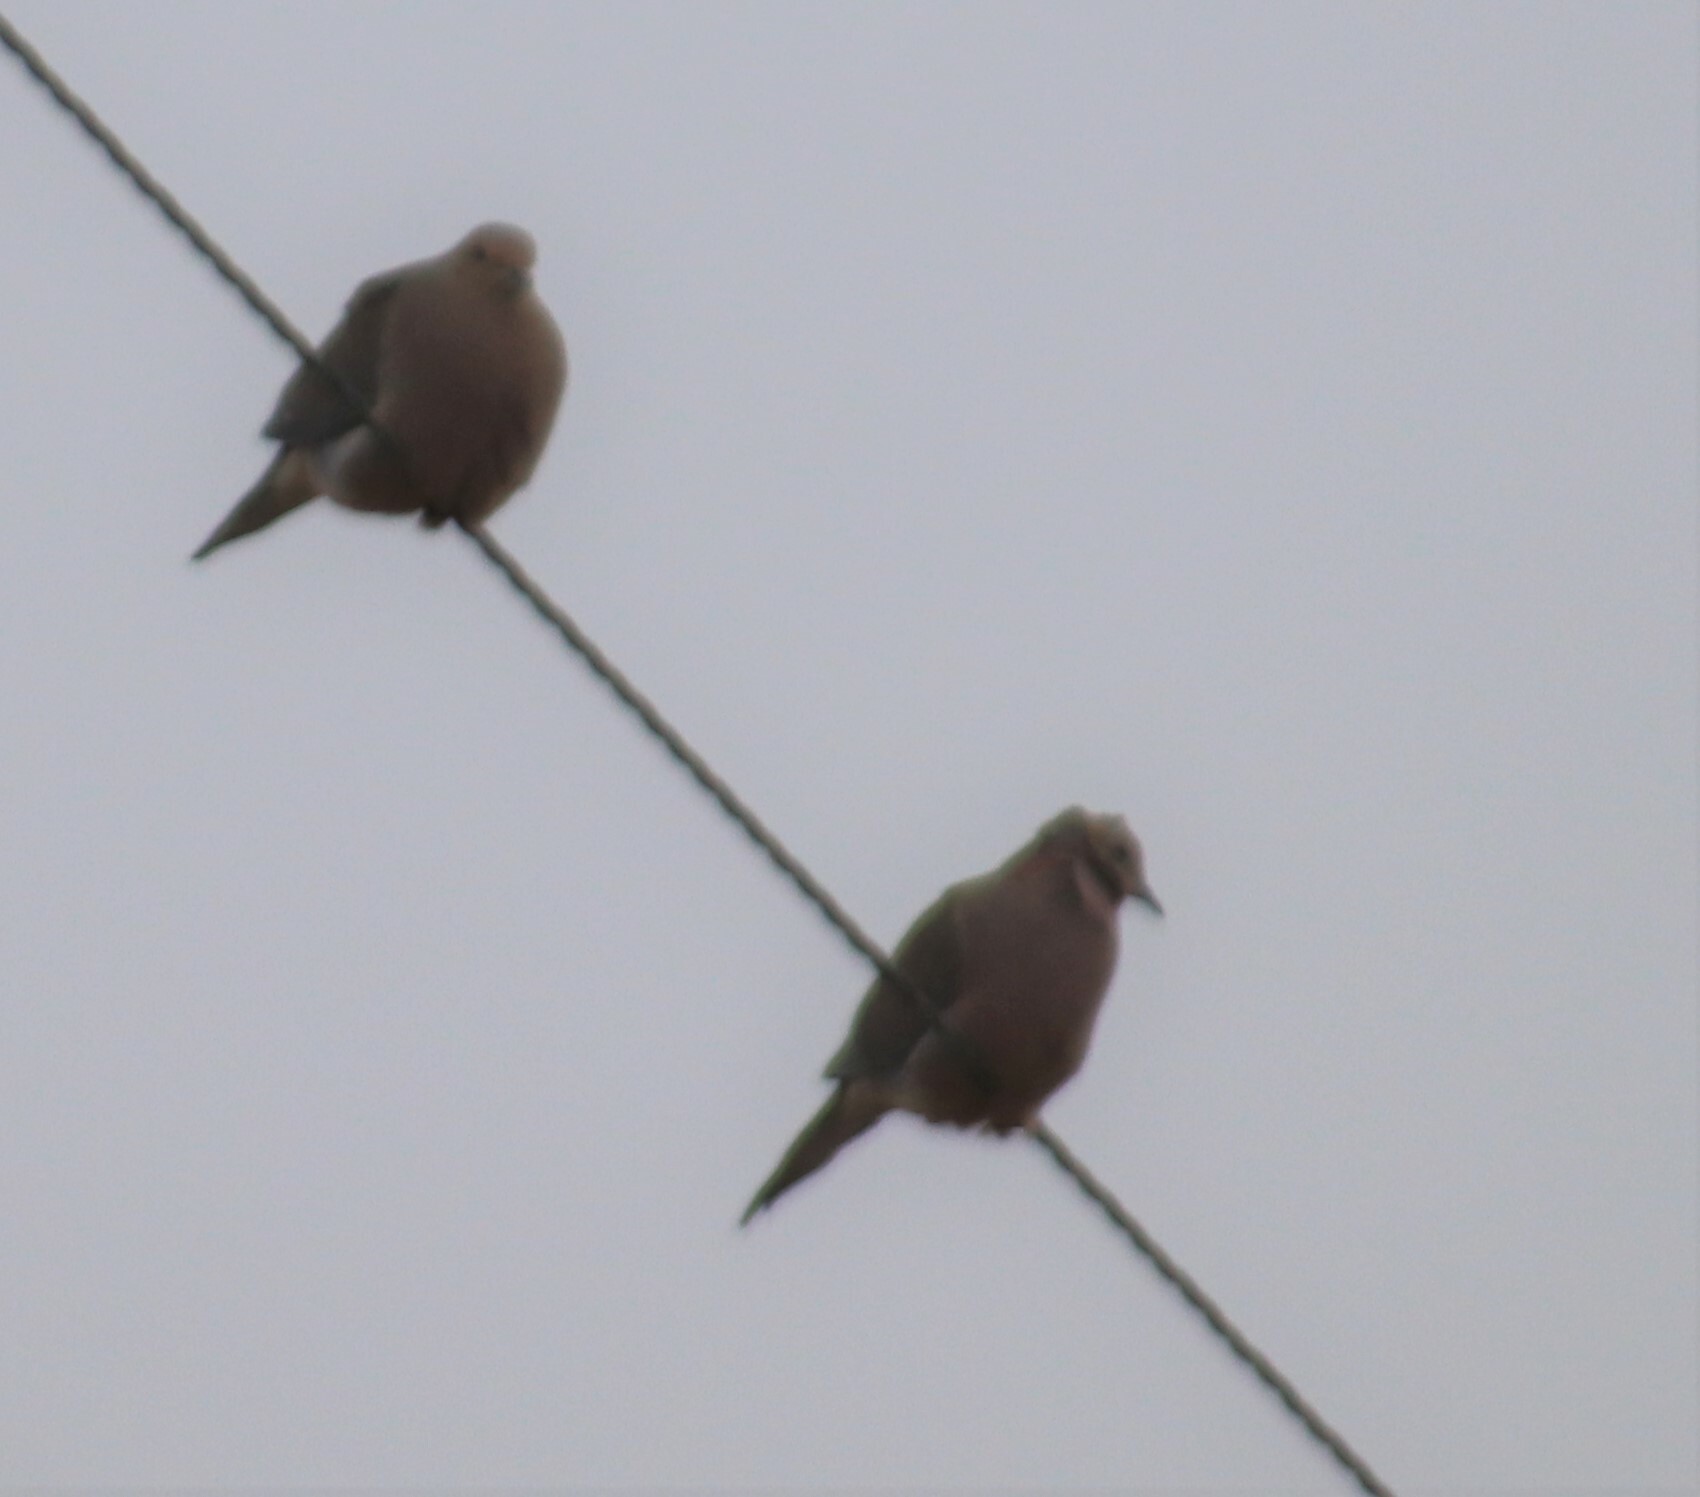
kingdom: Animalia
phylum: Chordata
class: Aves
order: Columbiformes
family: Columbidae
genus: Zenaida
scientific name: Zenaida macroura
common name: Mourning dove
